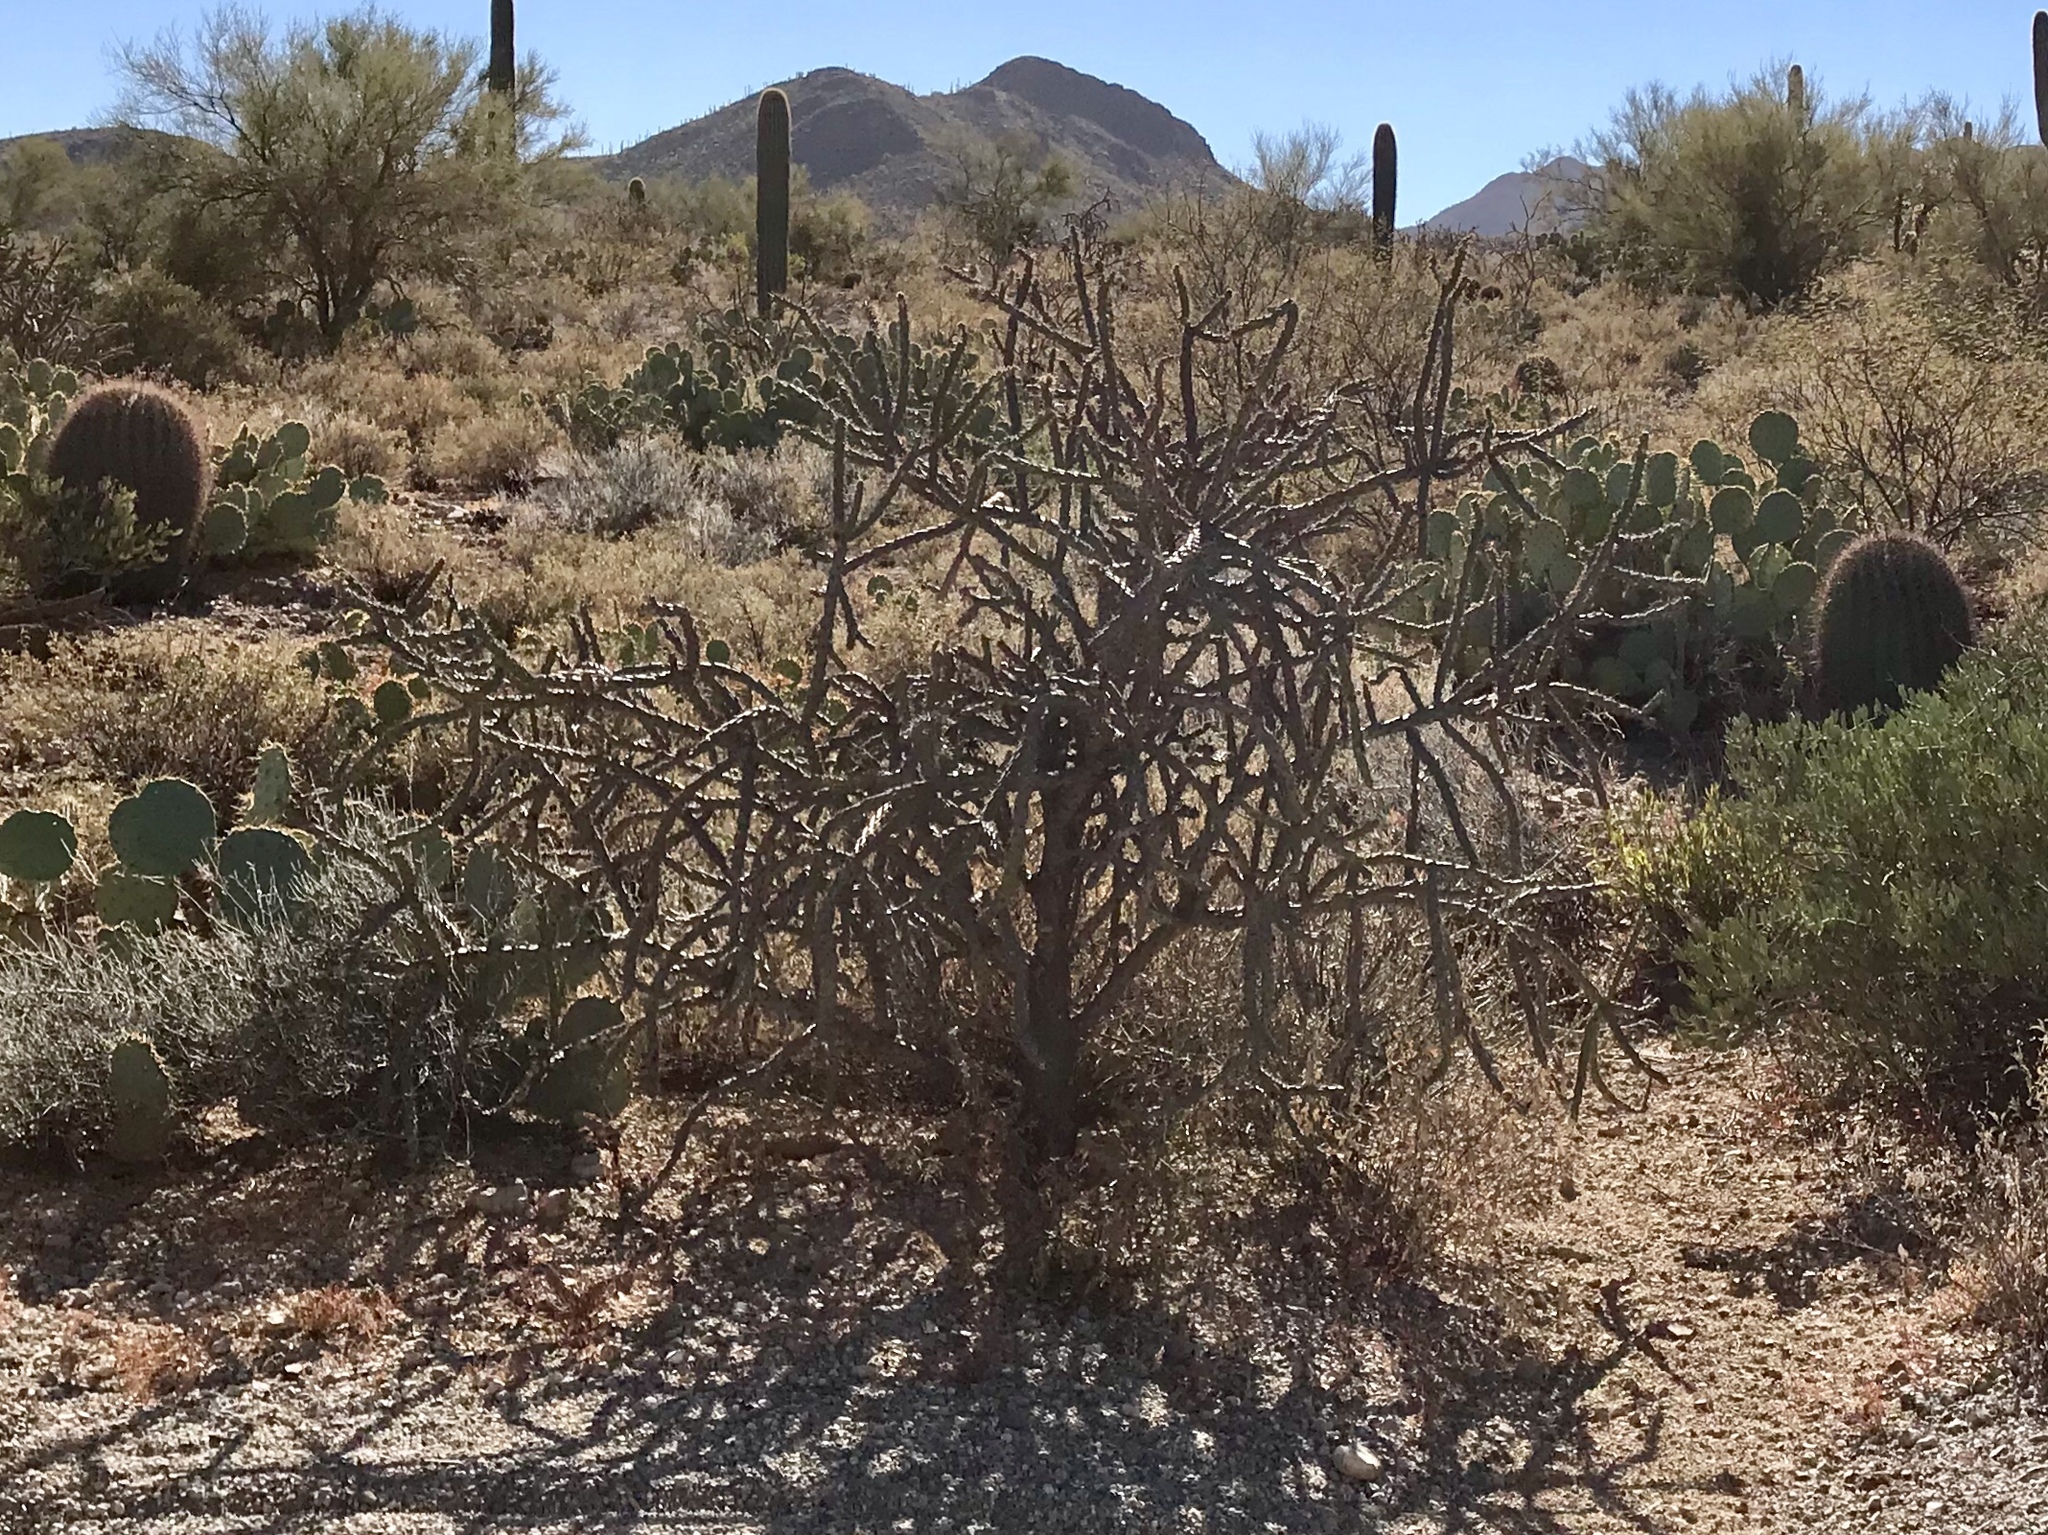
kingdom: Plantae
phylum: Tracheophyta
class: Magnoliopsida
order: Caryophyllales
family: Cactaceae
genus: Cylindropuntia
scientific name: Cylindropuntia thurberi
